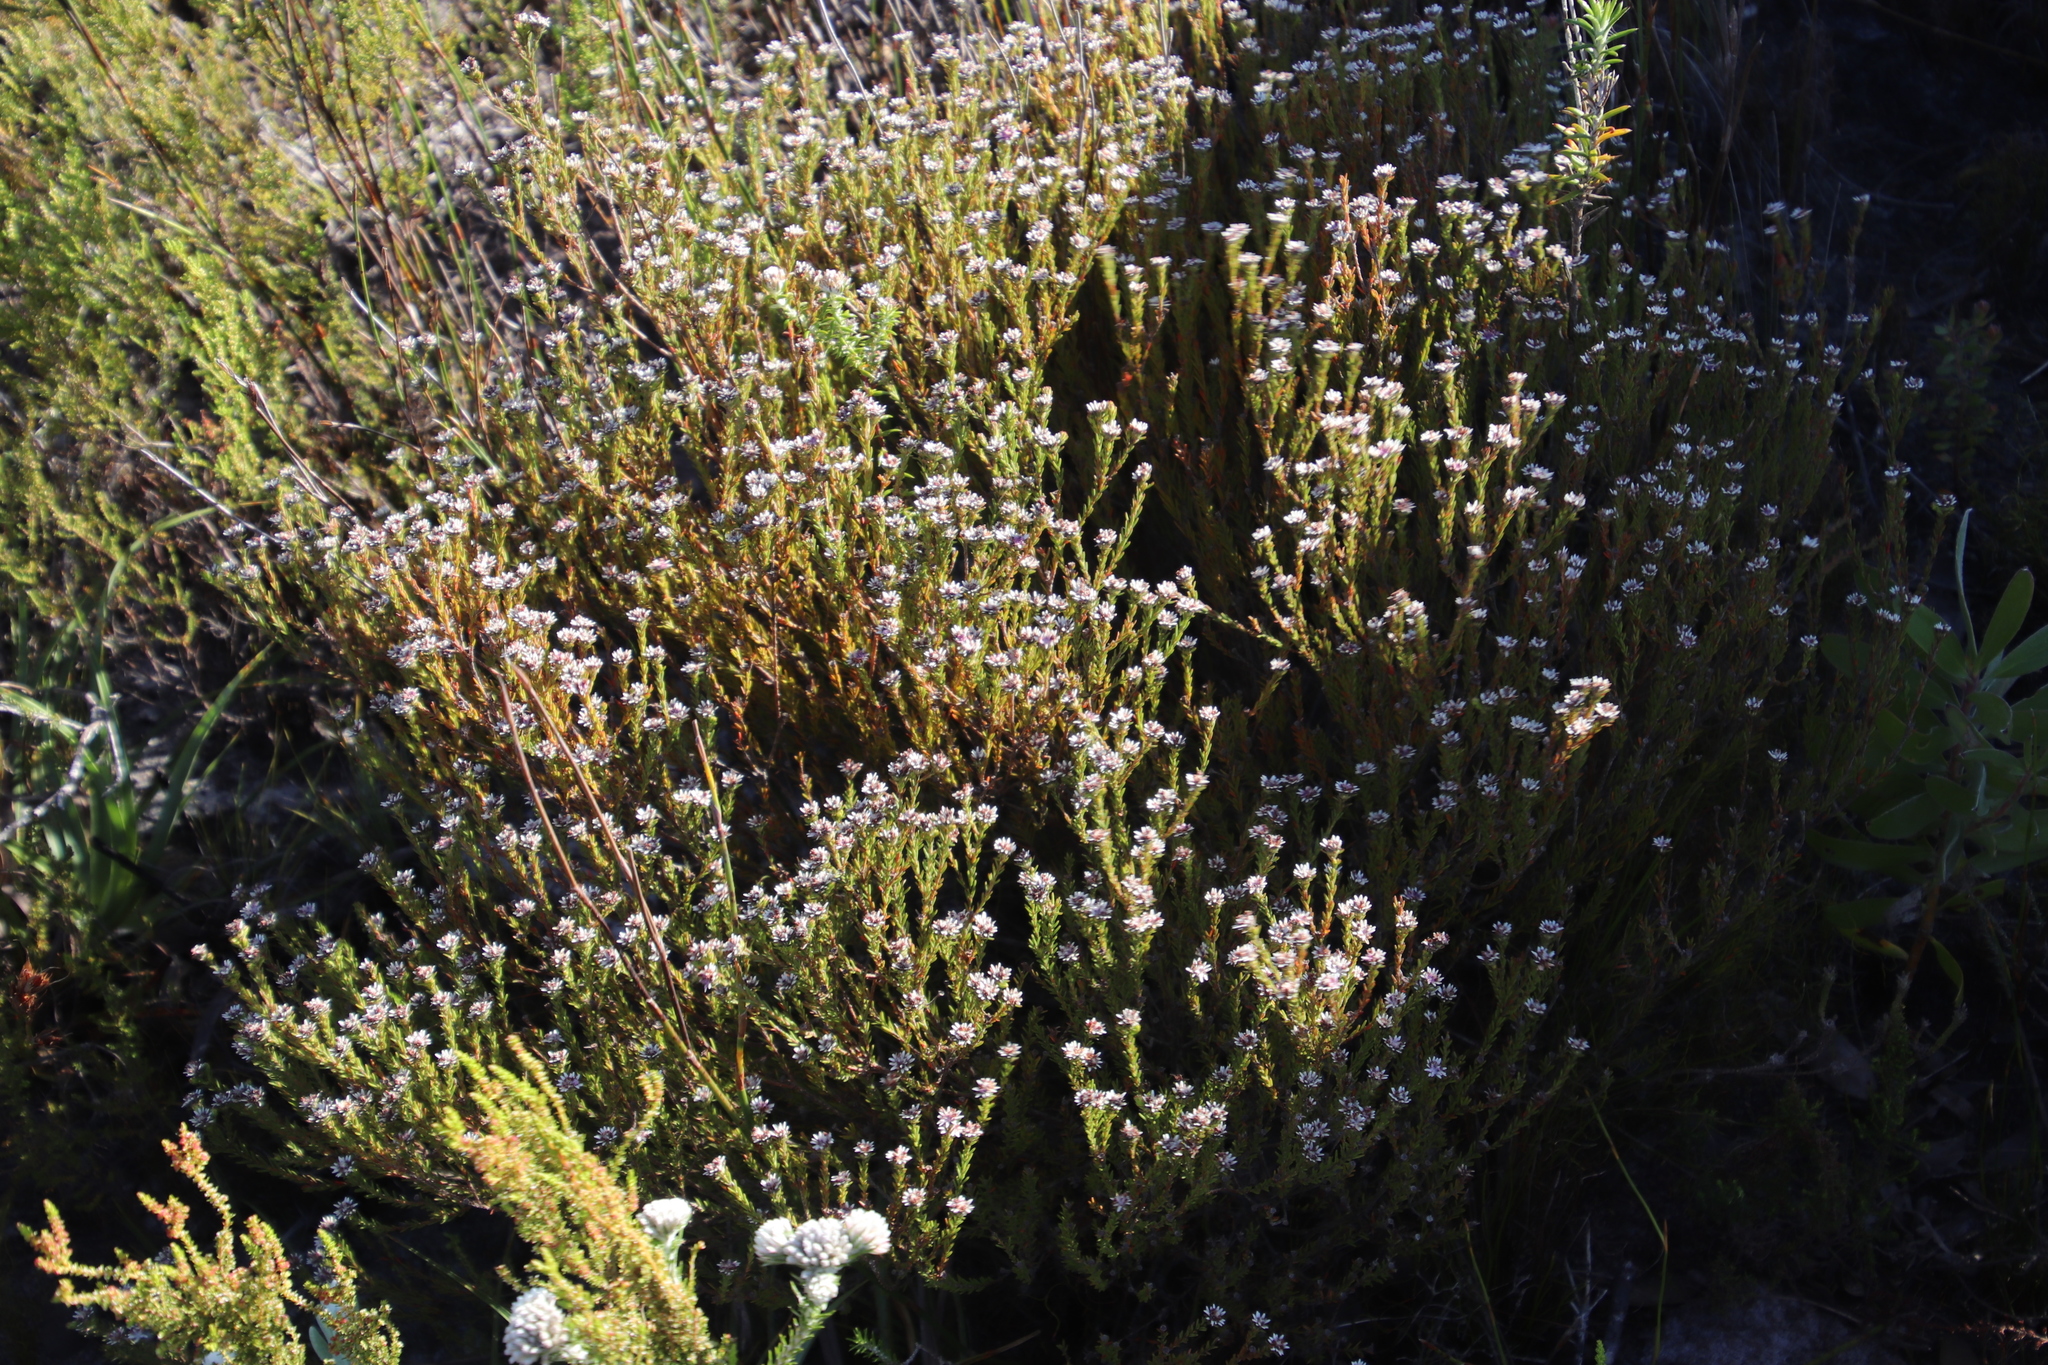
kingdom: Plantae
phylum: Tracheophyta
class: Magnoliopsida
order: Bruniales
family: Bruniaceae
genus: Staavia
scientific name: Staavia radiata
